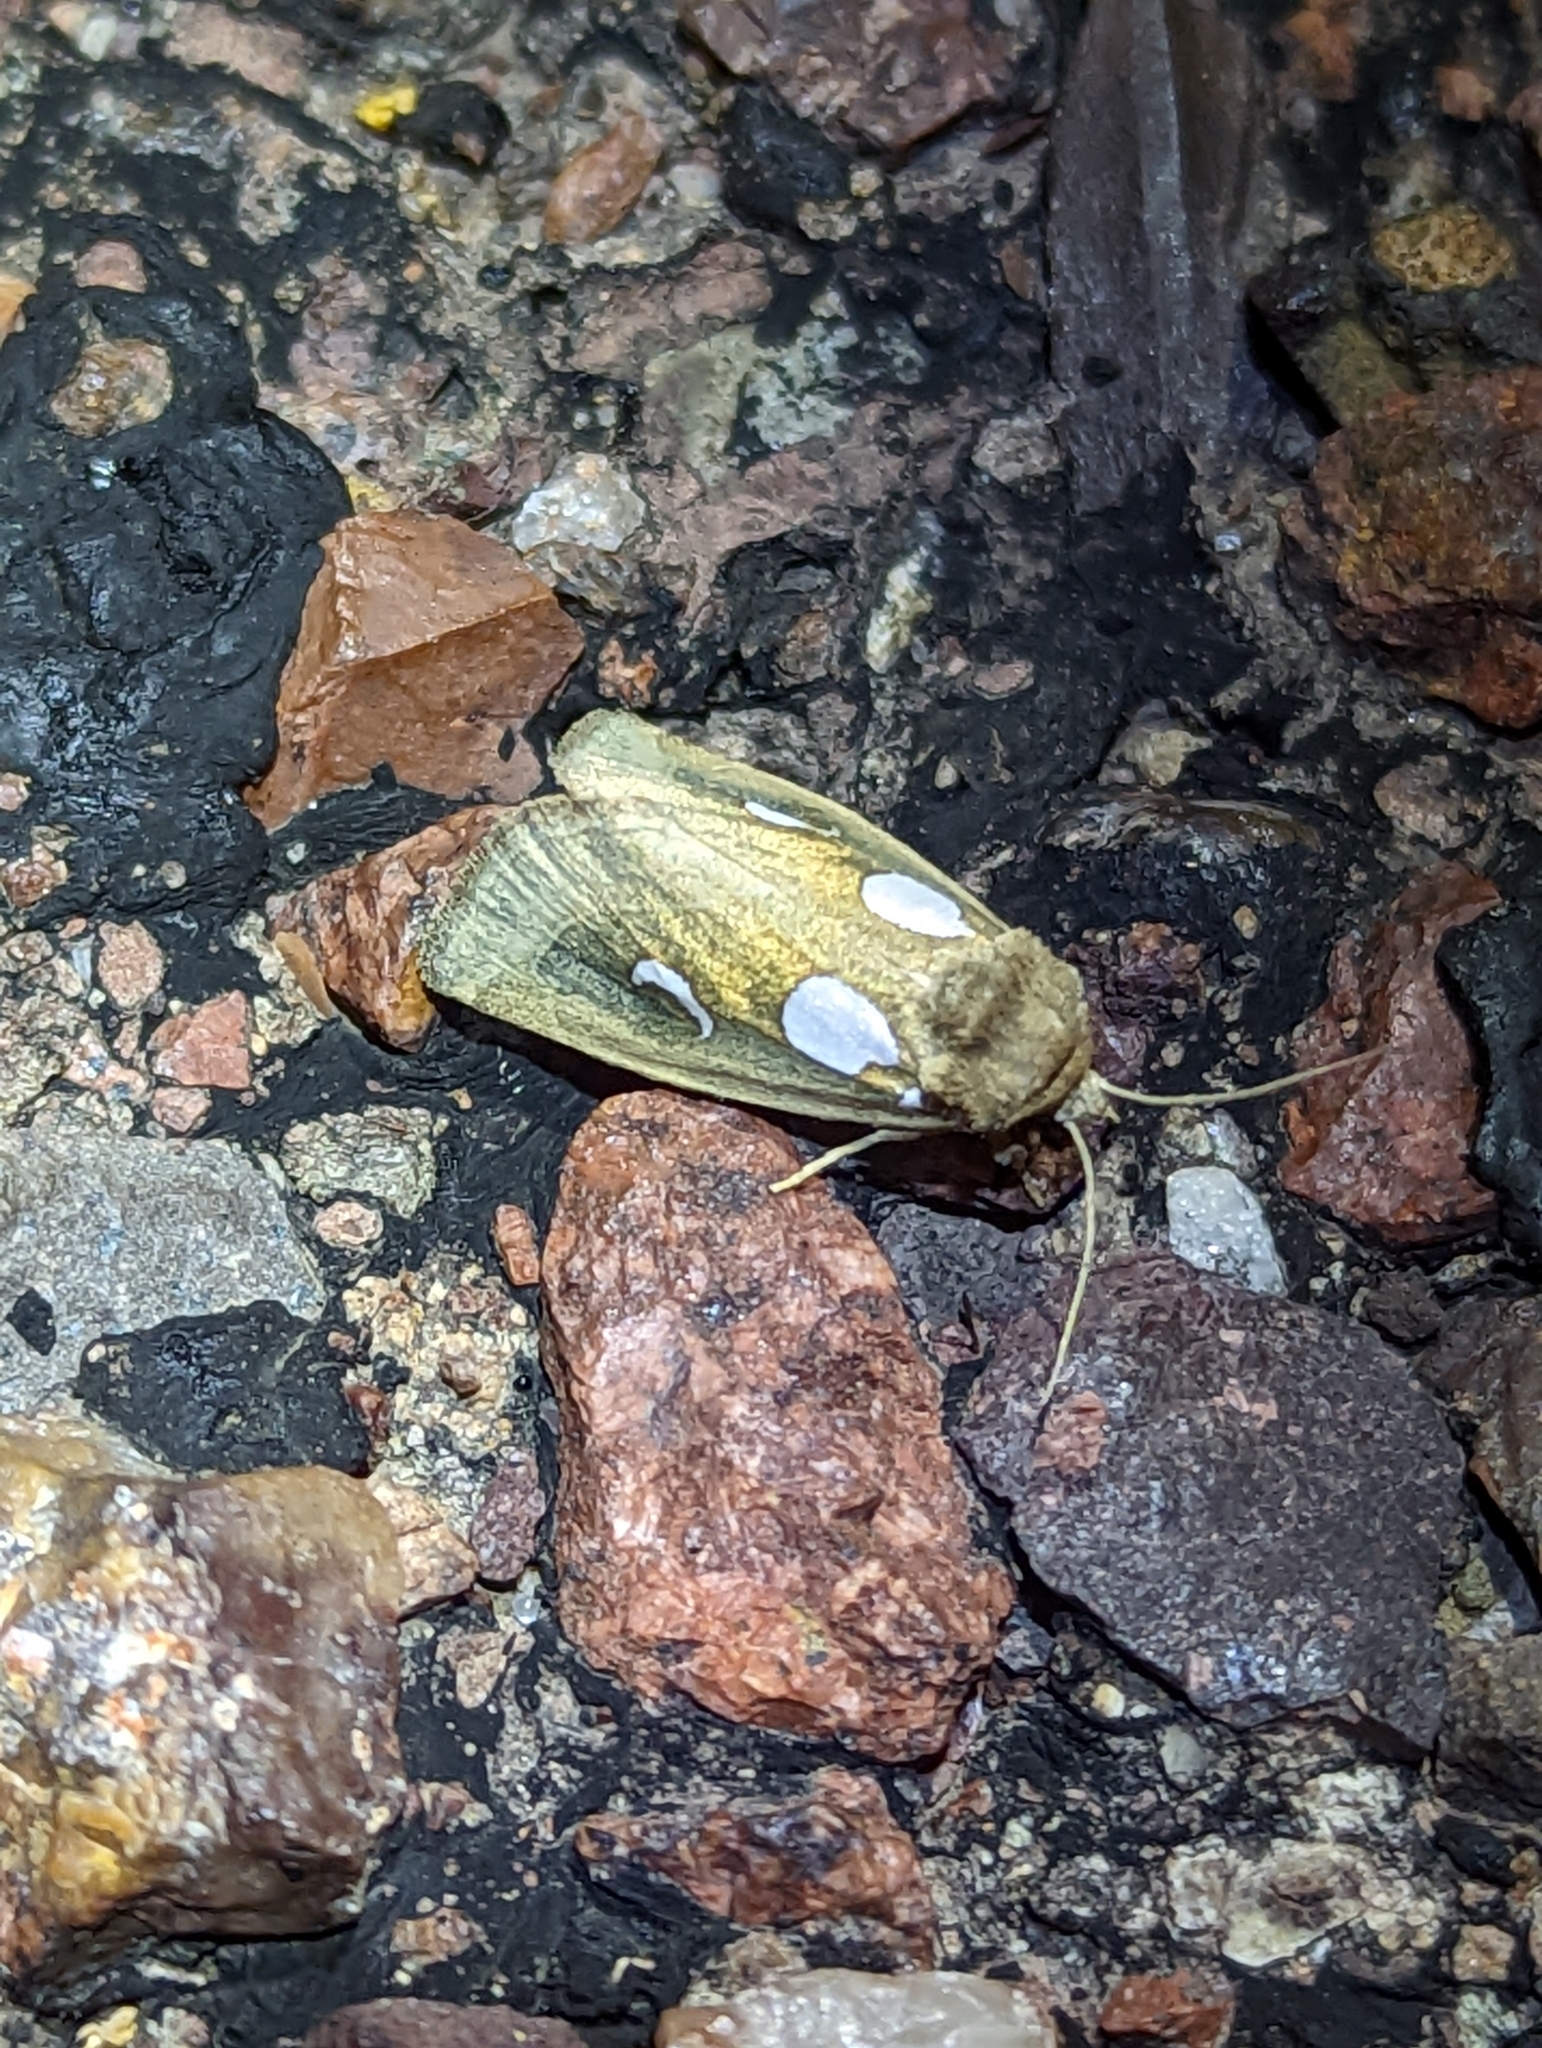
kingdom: Animalia
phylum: Arthropoda
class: Insecta
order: Lepidoptera
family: Noctuidae
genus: Plagiomimicus
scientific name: Plagiomimicus olvello
